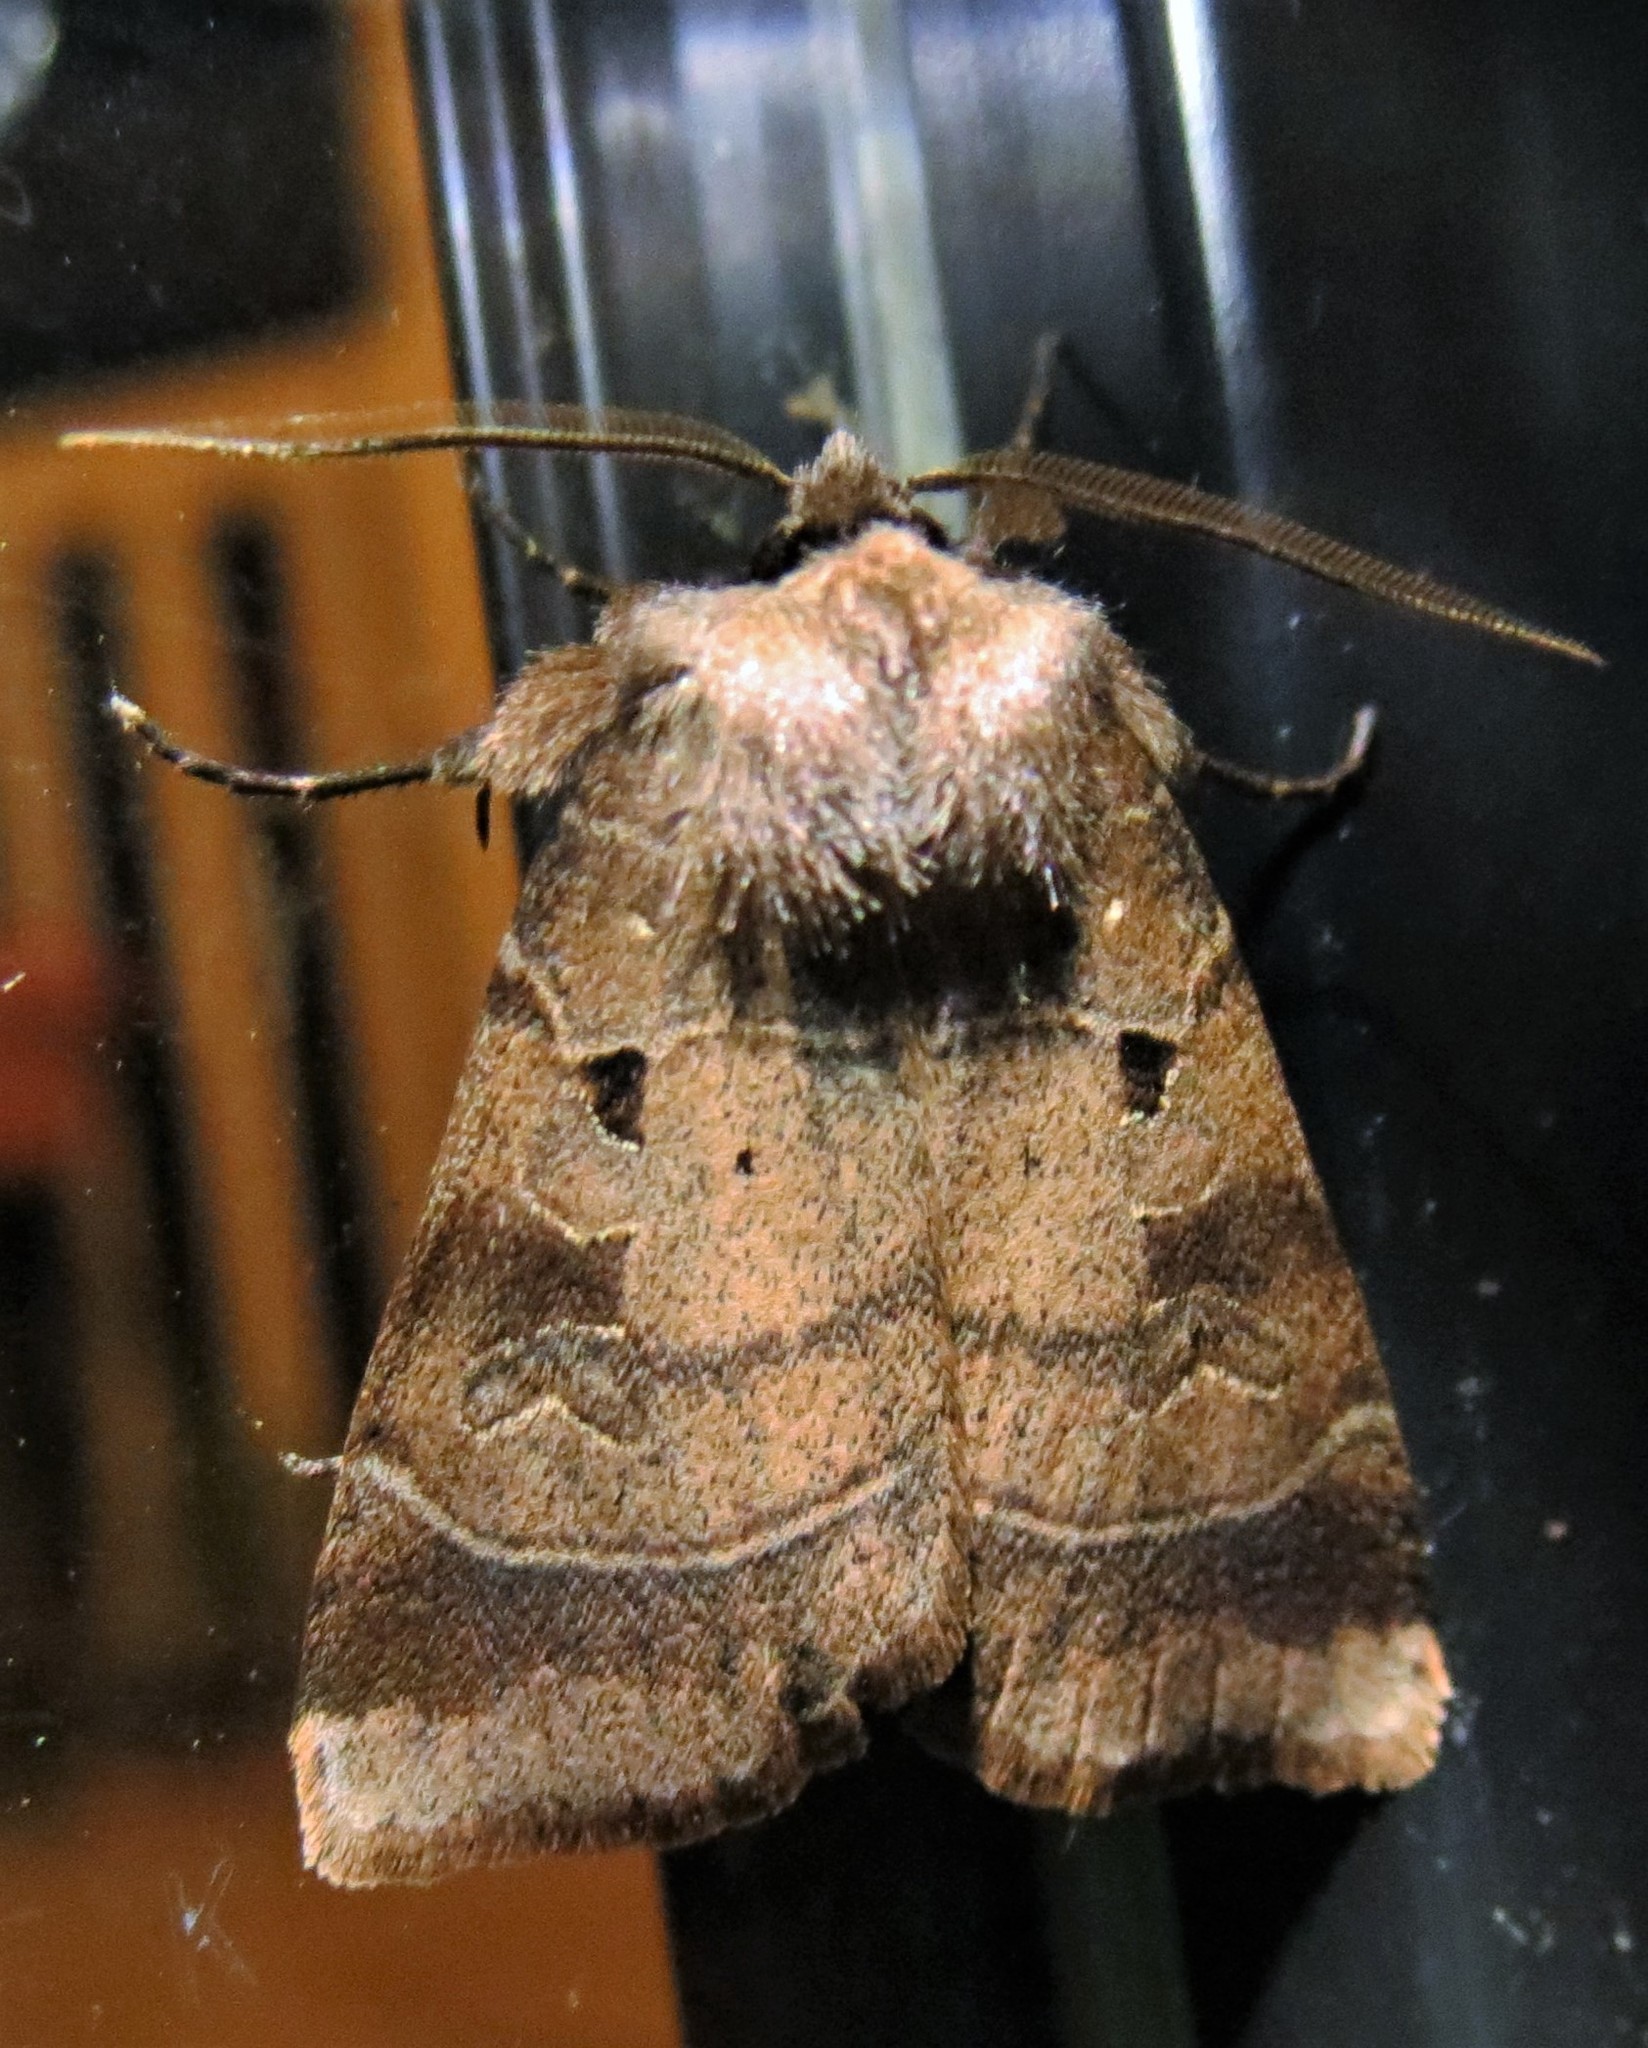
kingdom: Animalia
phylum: Arthropoda
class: Insecta
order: Lepidoptera
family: Noctuidae
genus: Agnorisma
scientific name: Agnorisma badinodis
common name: Pale-banded dart
